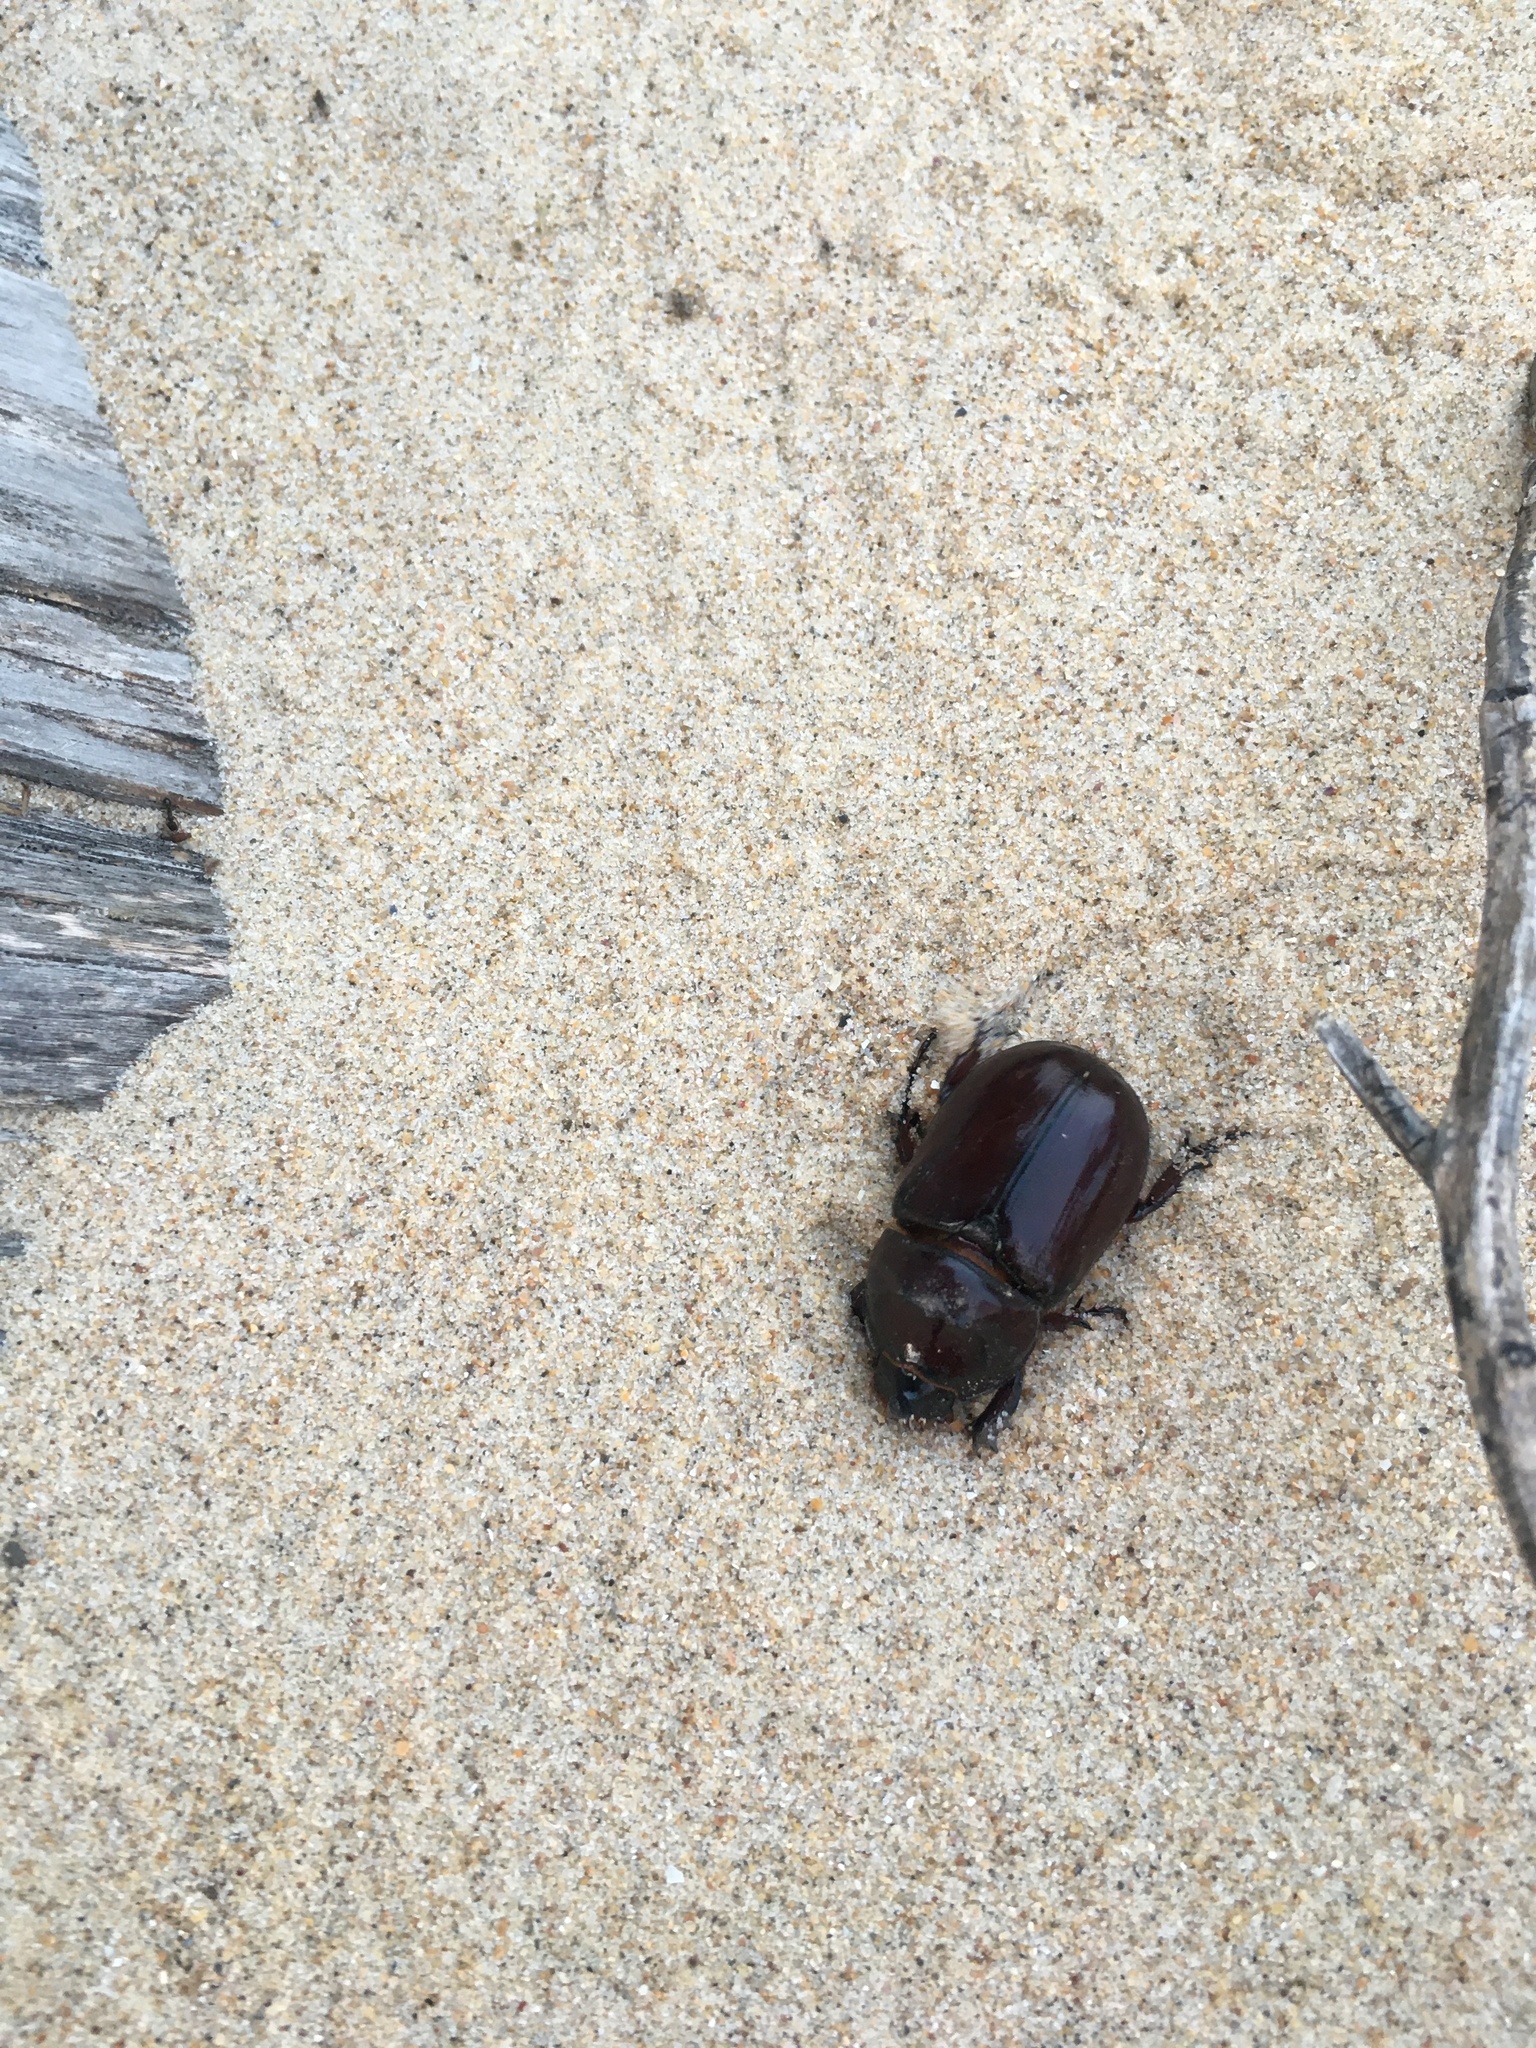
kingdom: Animalia
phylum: Arthropoda
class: Insecta
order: Coleoptera
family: Scarabaeidae
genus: Oryctes
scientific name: Oryctes nasicornis
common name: European rhinoceros beetle
